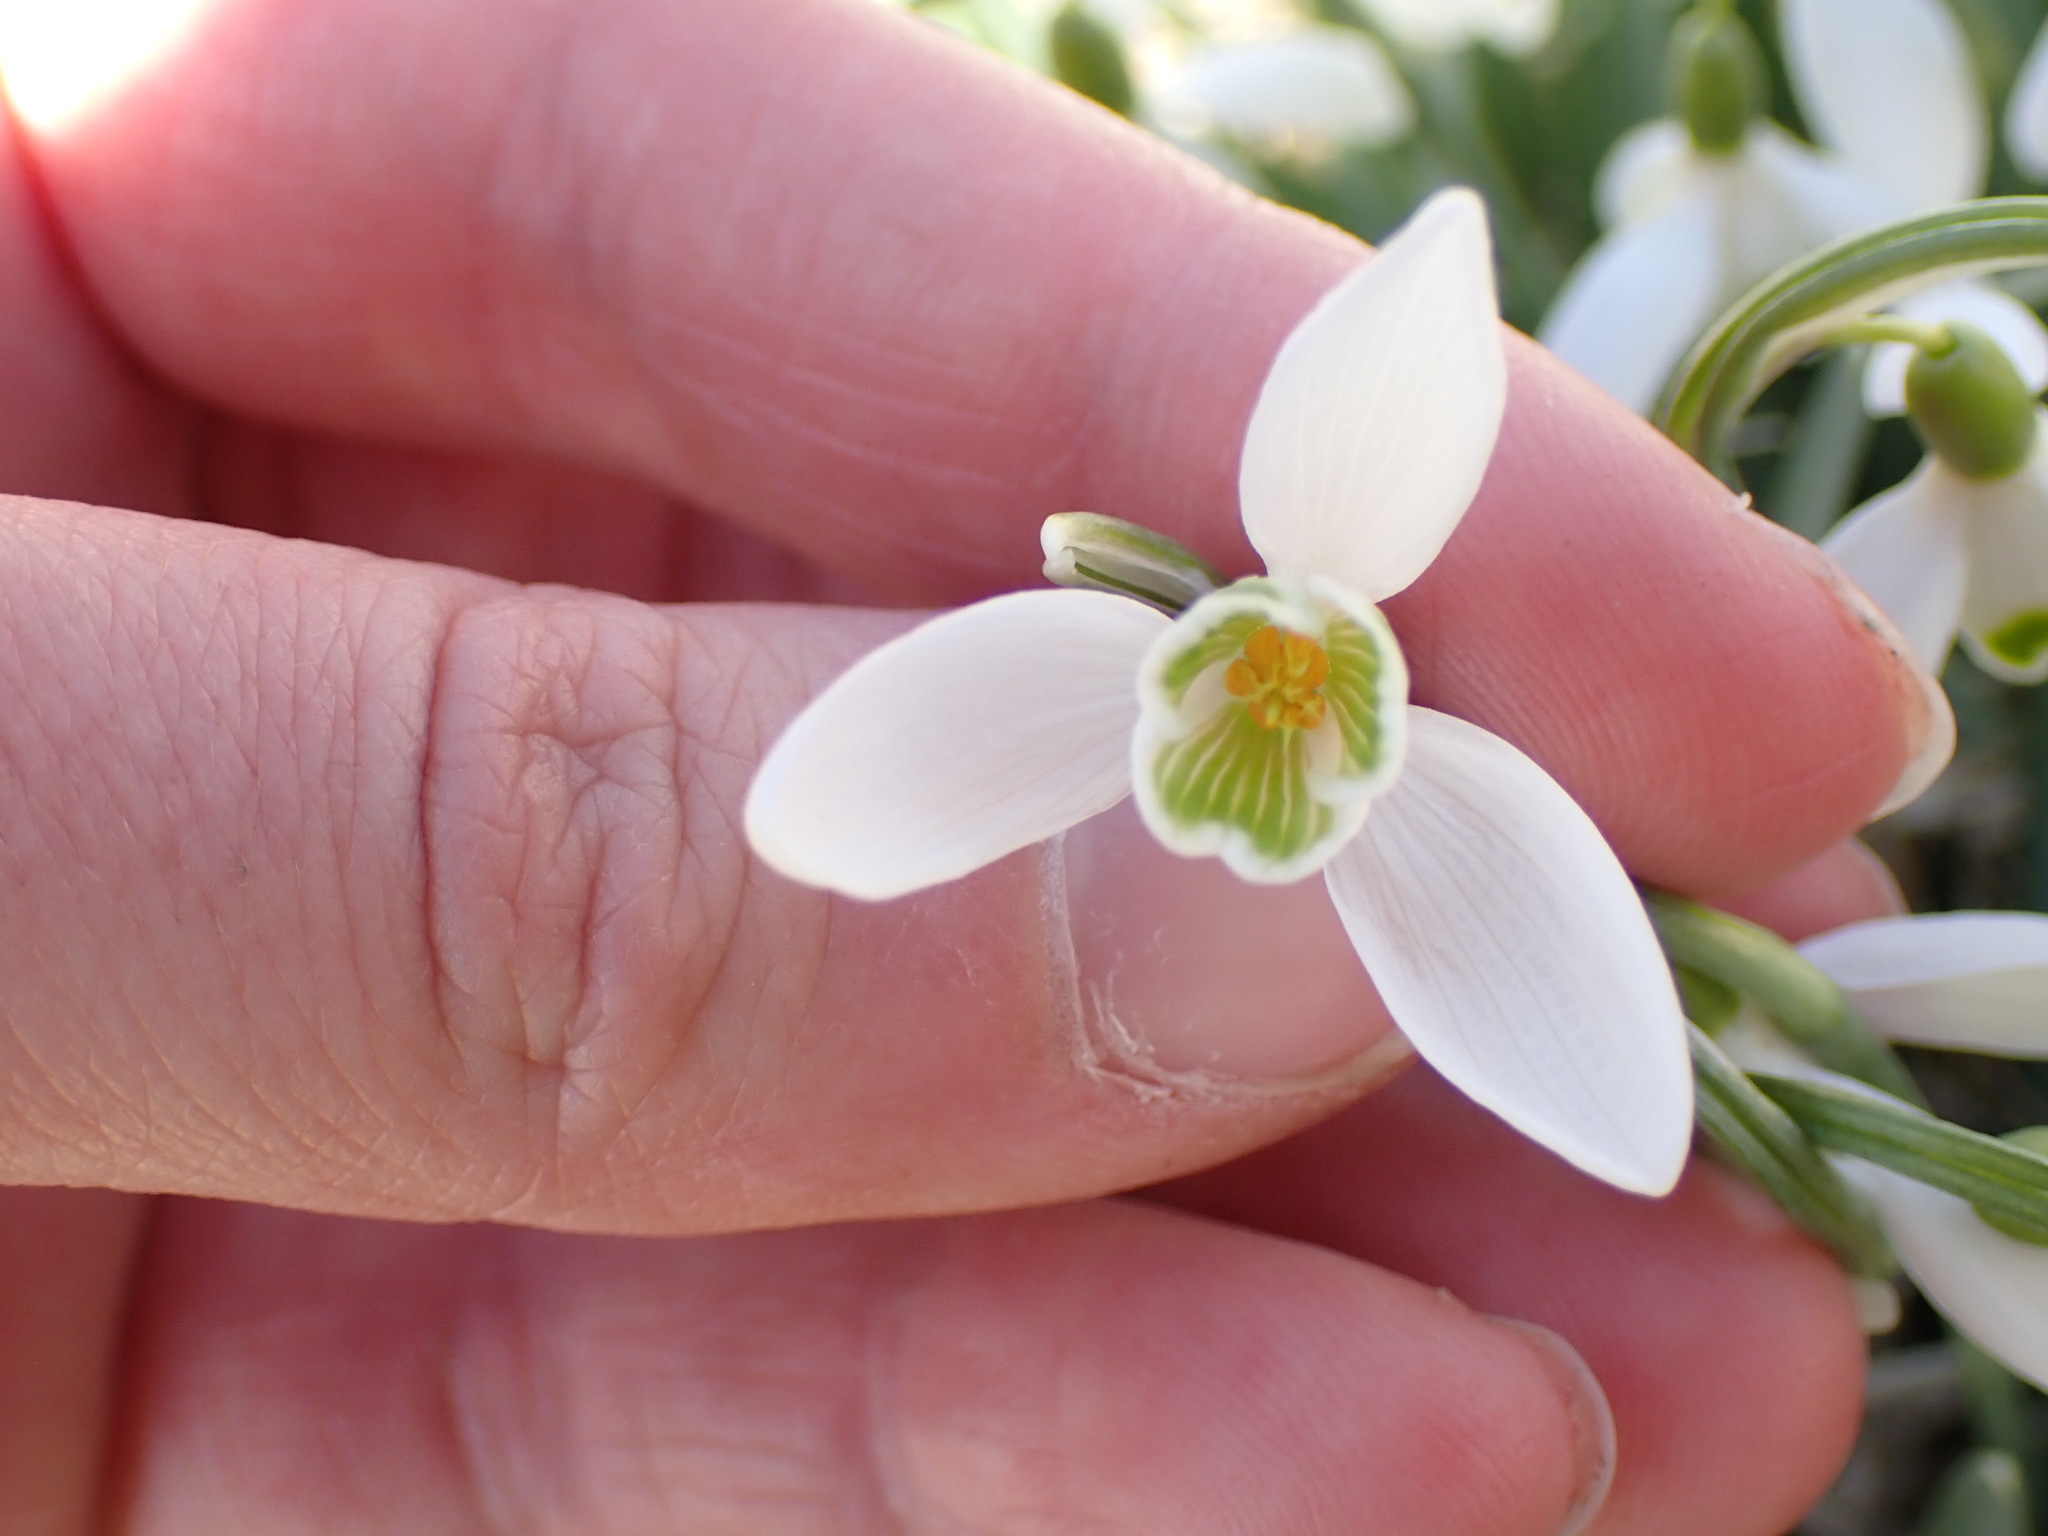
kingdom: Plantae
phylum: Tracheophyta
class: Liliopsida
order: Asparagales
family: Amaryllidaceae
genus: Galanthus
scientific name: Galanthus nivalis
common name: Snowdrop
